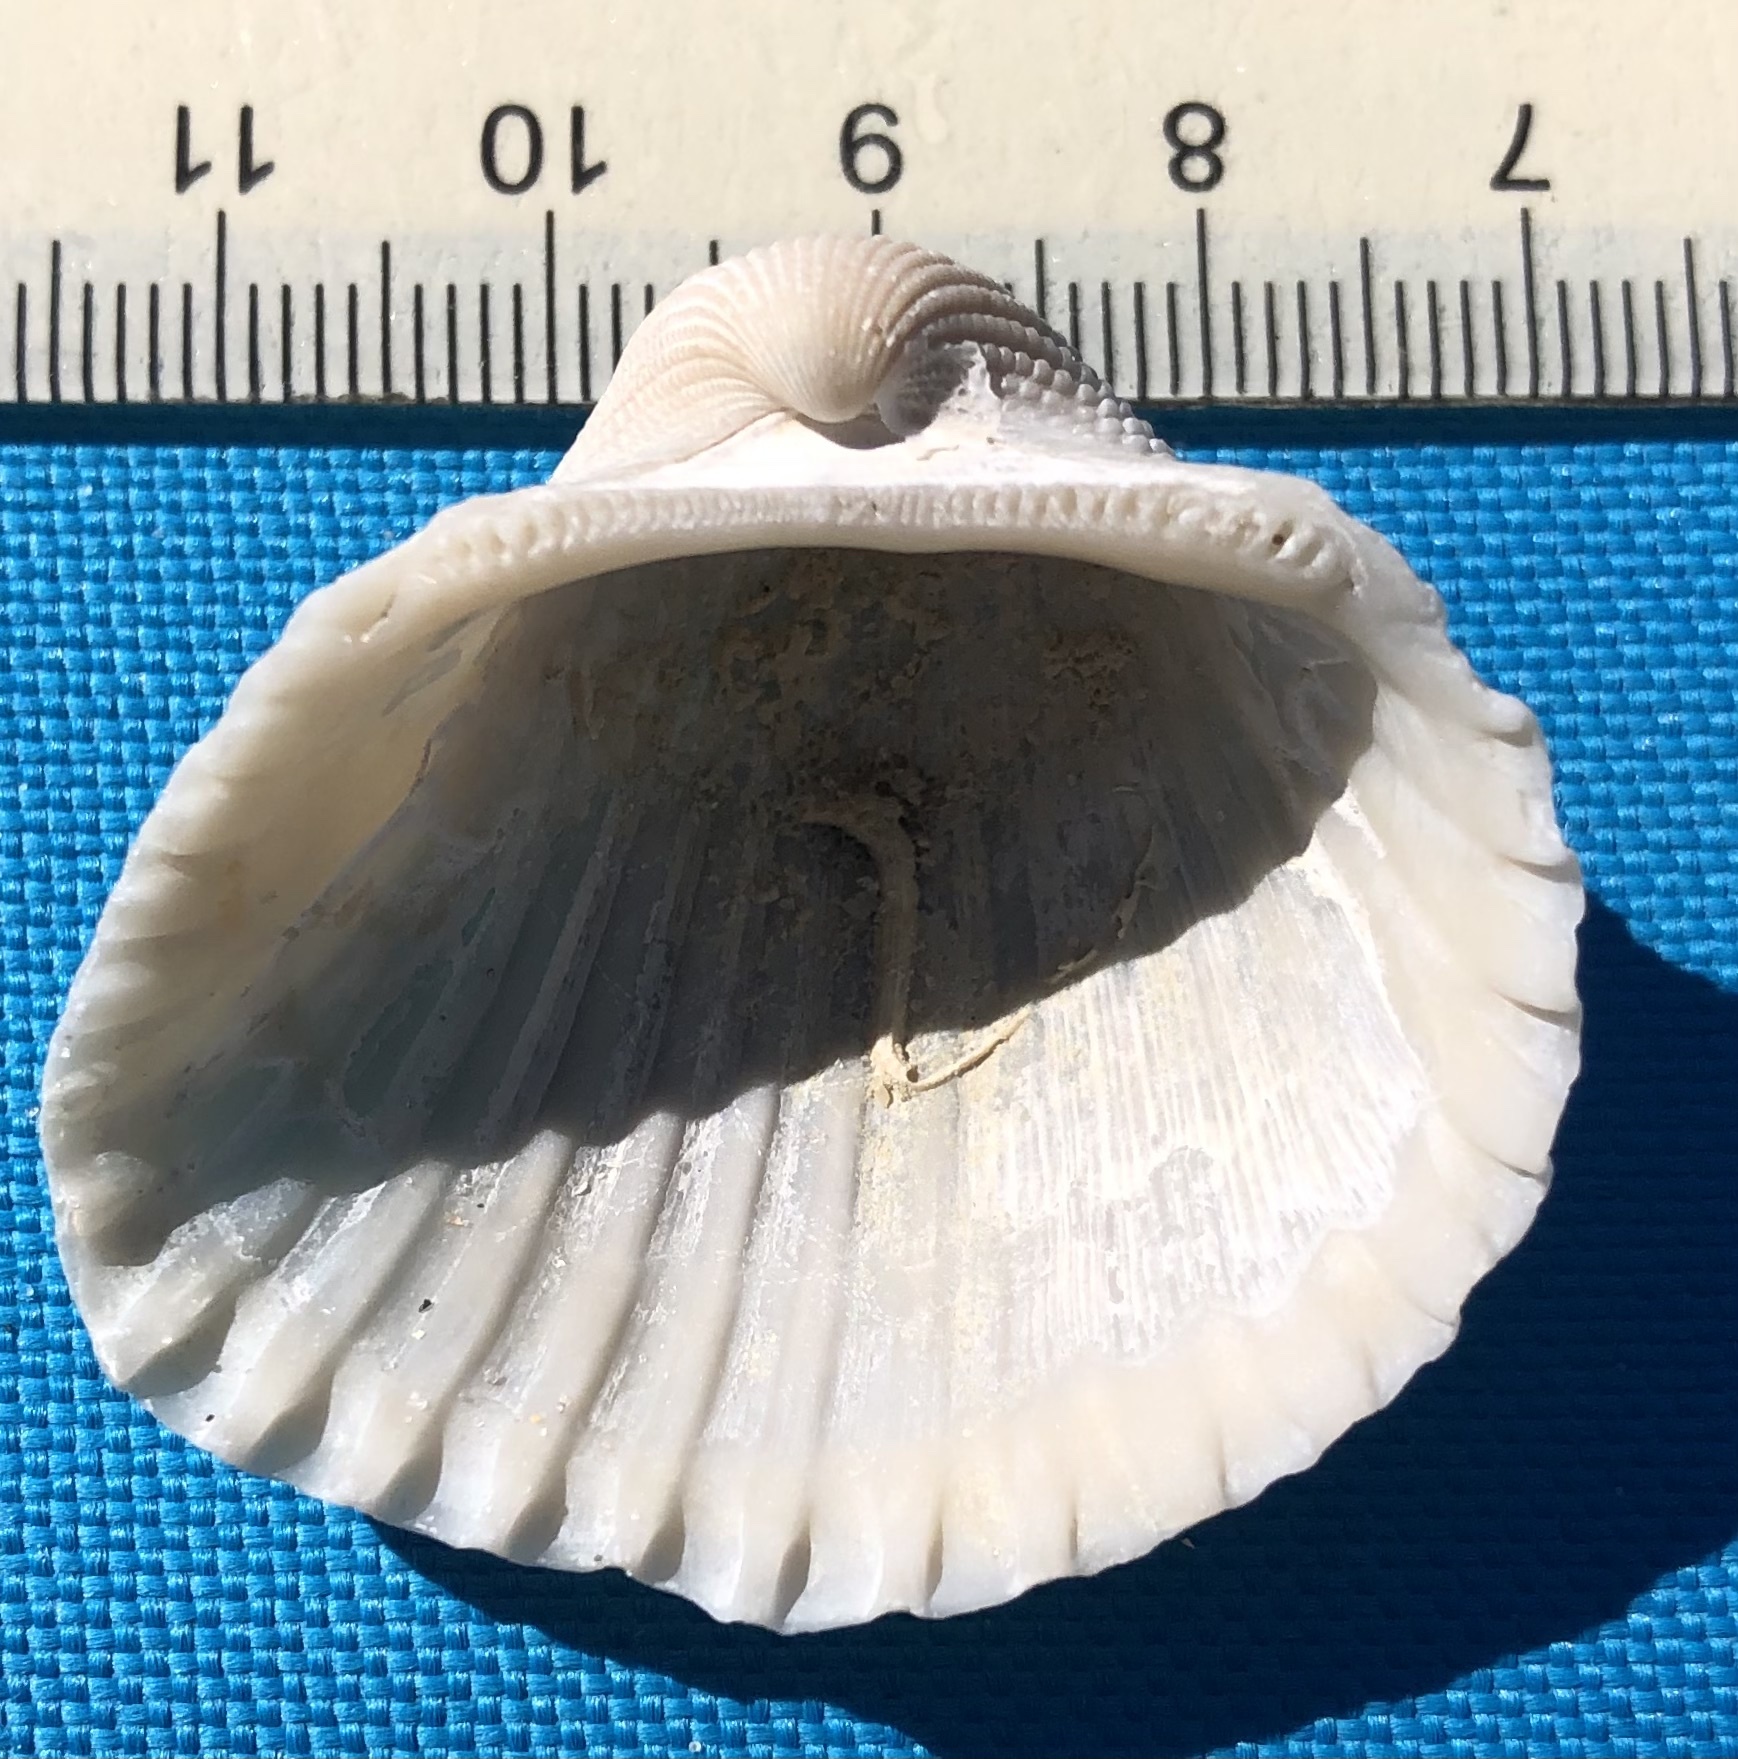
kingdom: Animalia
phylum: Mollusca
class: Bivalvia
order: Arcida
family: Arcidae
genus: Anadara
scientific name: Anadara brasiliana
